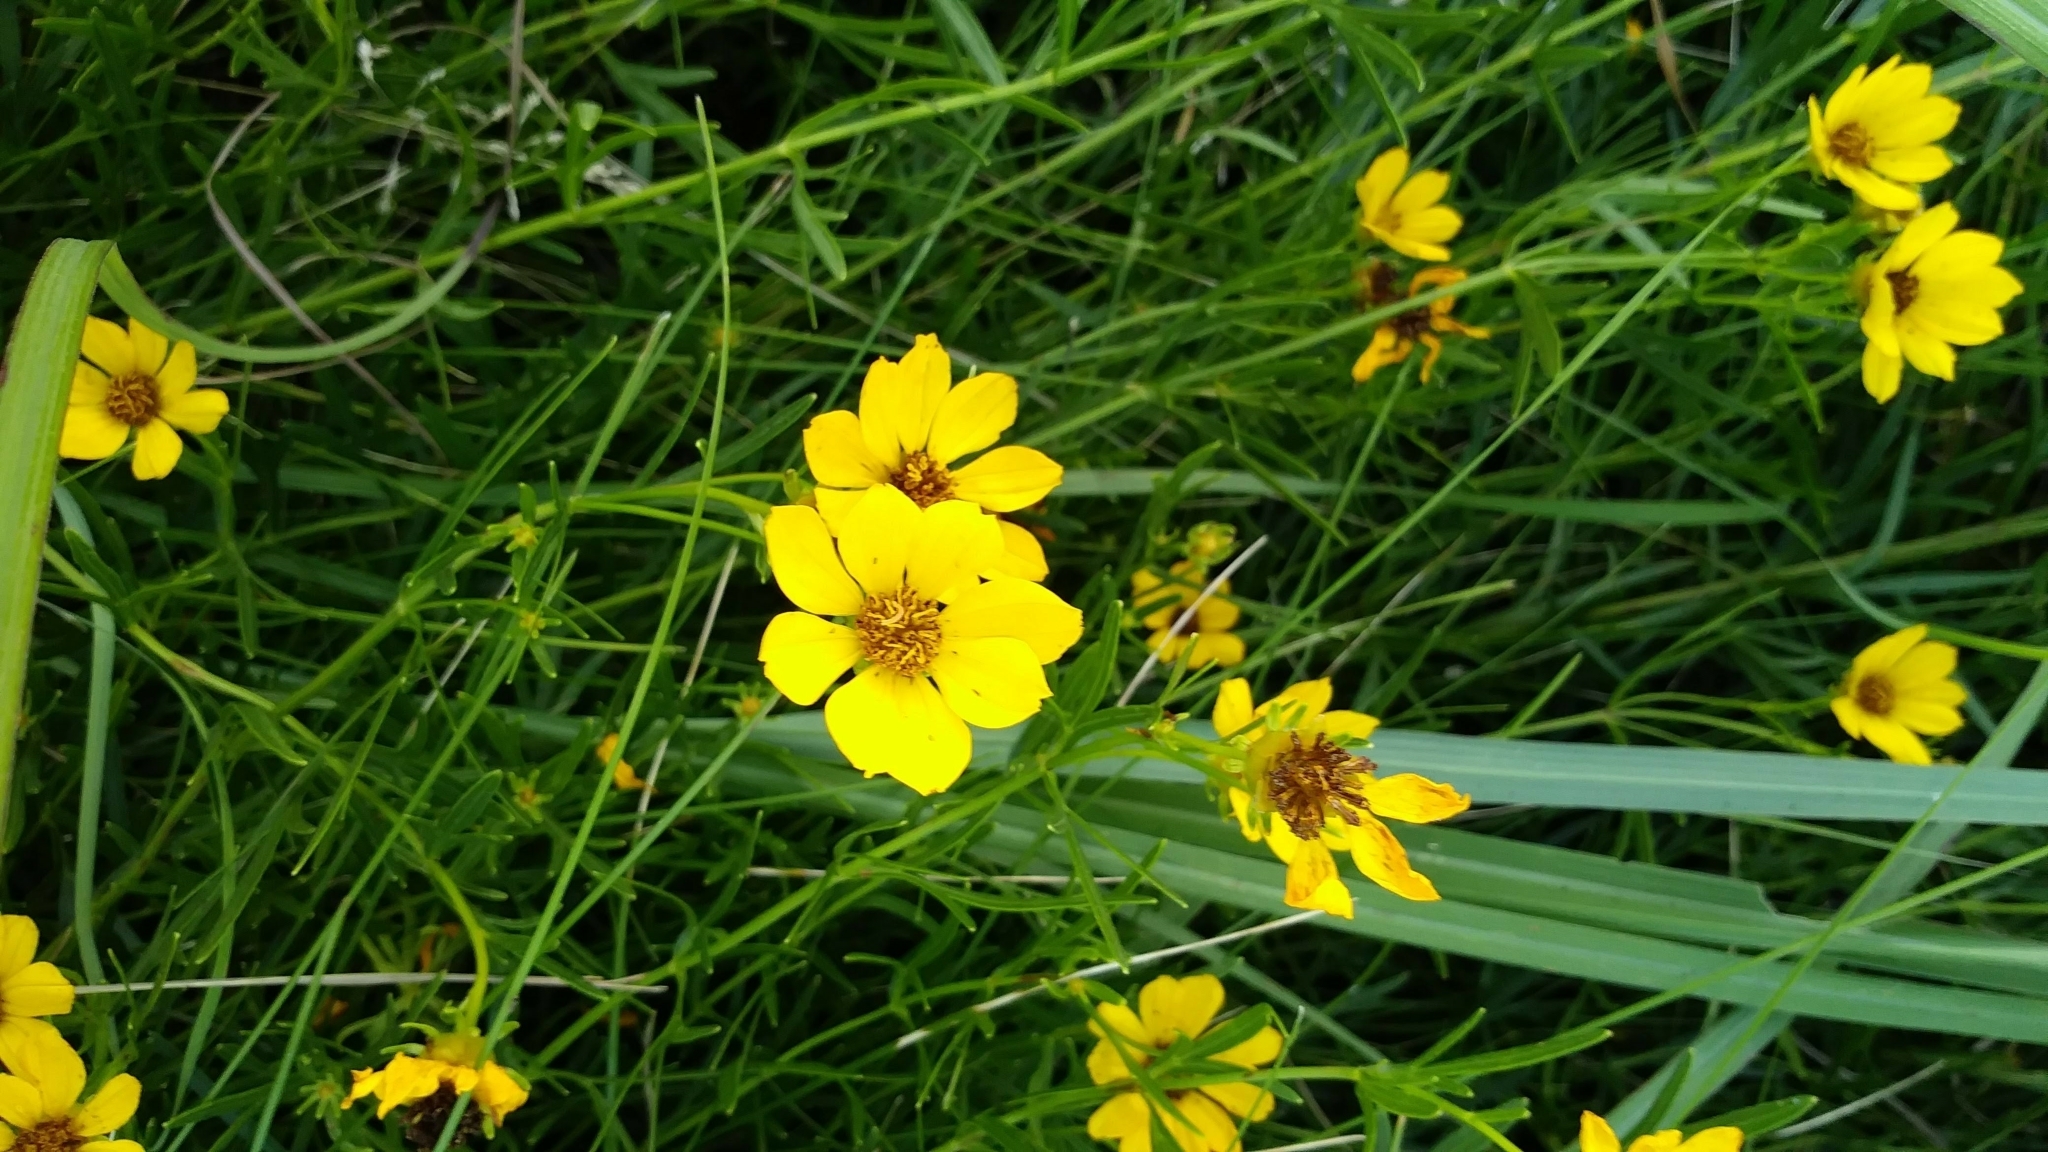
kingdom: Plantae
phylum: Tracheophyta
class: Magnoliopsida
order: Asterales
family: Asteraceae
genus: Coreopsis
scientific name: Coreopsis palmata
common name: Prairie coreopsis
